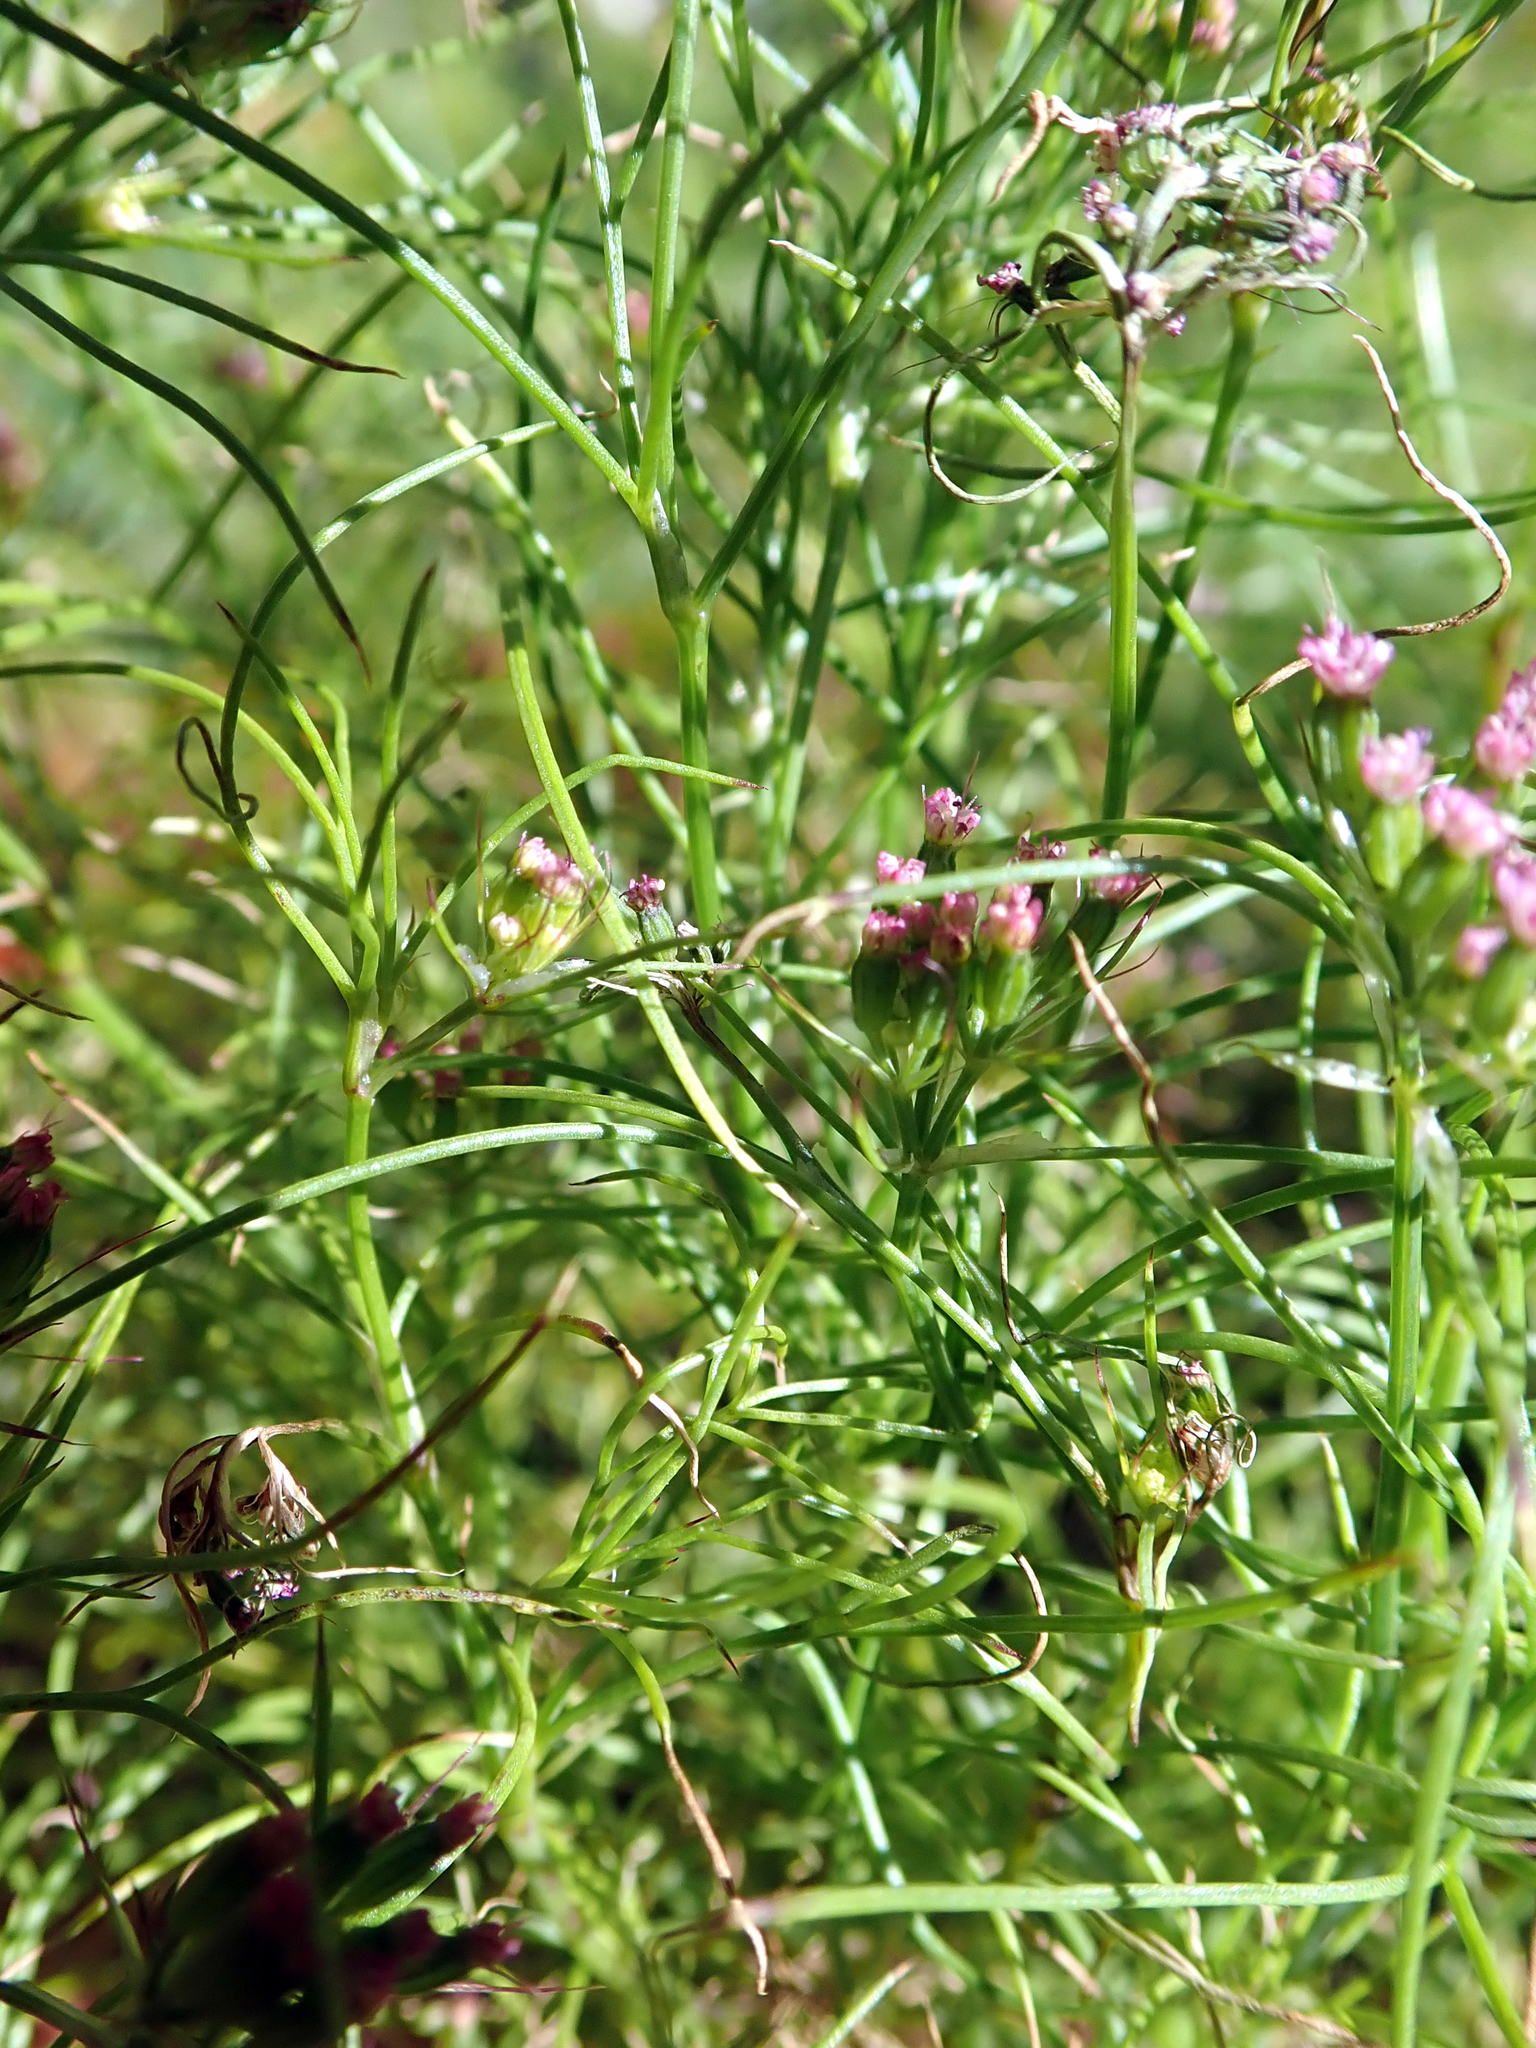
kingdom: Plantae
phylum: Tracheophyta
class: Magnoliopsida
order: Apiales
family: Apiaceae
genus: Cuminum
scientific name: Cuminum cyminum
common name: Cumin
